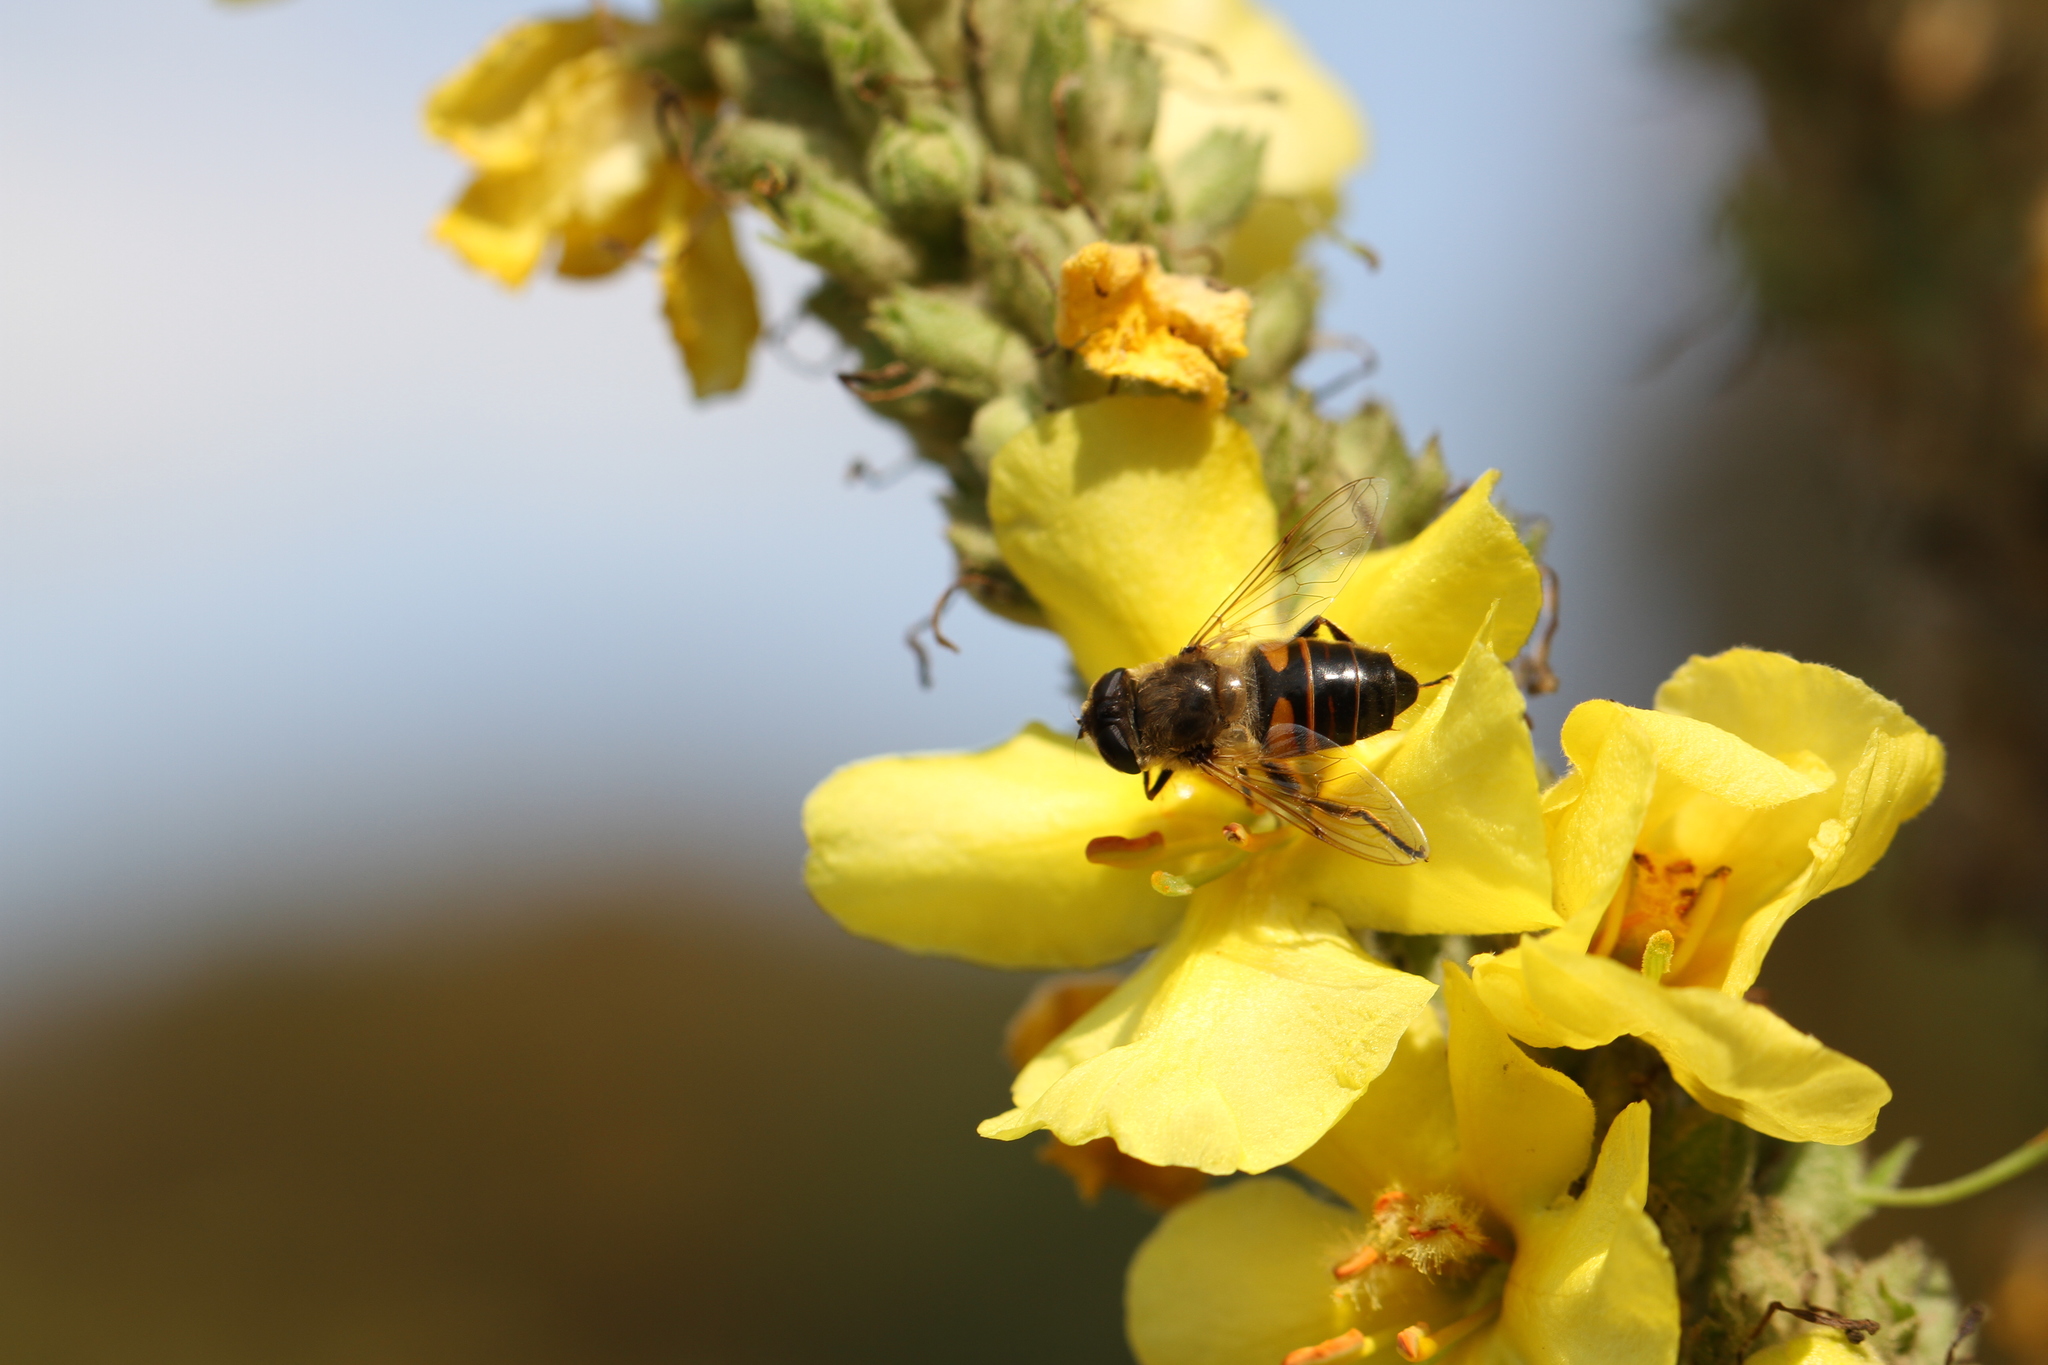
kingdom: Animalia
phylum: Arthropoda
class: Insecta
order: Diptera
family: Syrphidae
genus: Eristalis
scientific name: Eristalis tenax
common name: Drone fly
